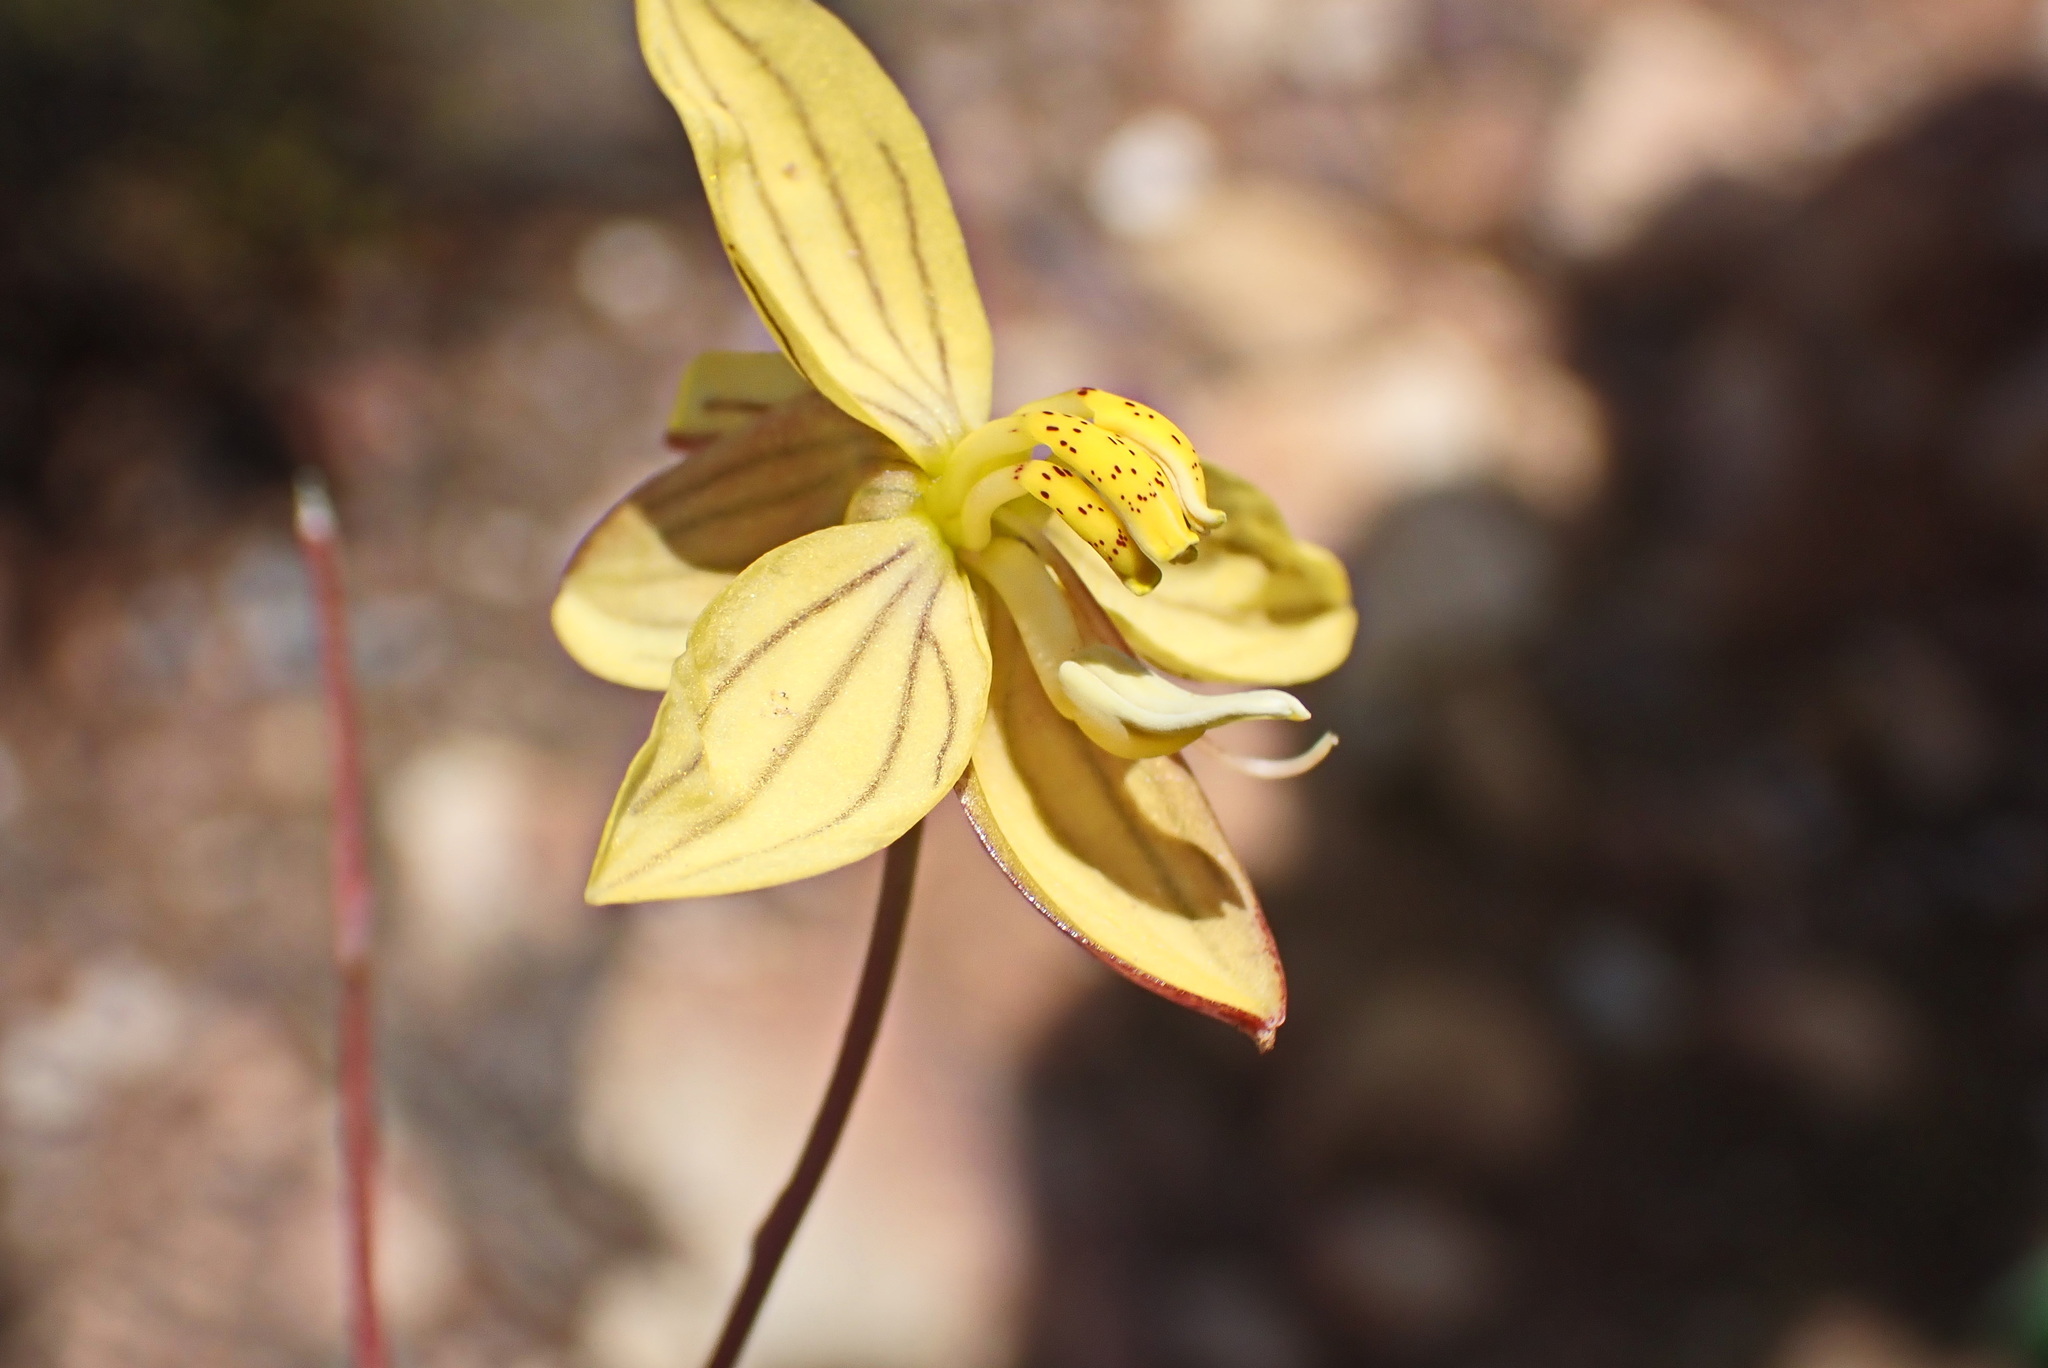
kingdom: Plantae
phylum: Tracheophyta
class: Liliopsida
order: Asparagales
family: Tecophilaeaceae
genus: Cyanella
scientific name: Cyanella lutea
